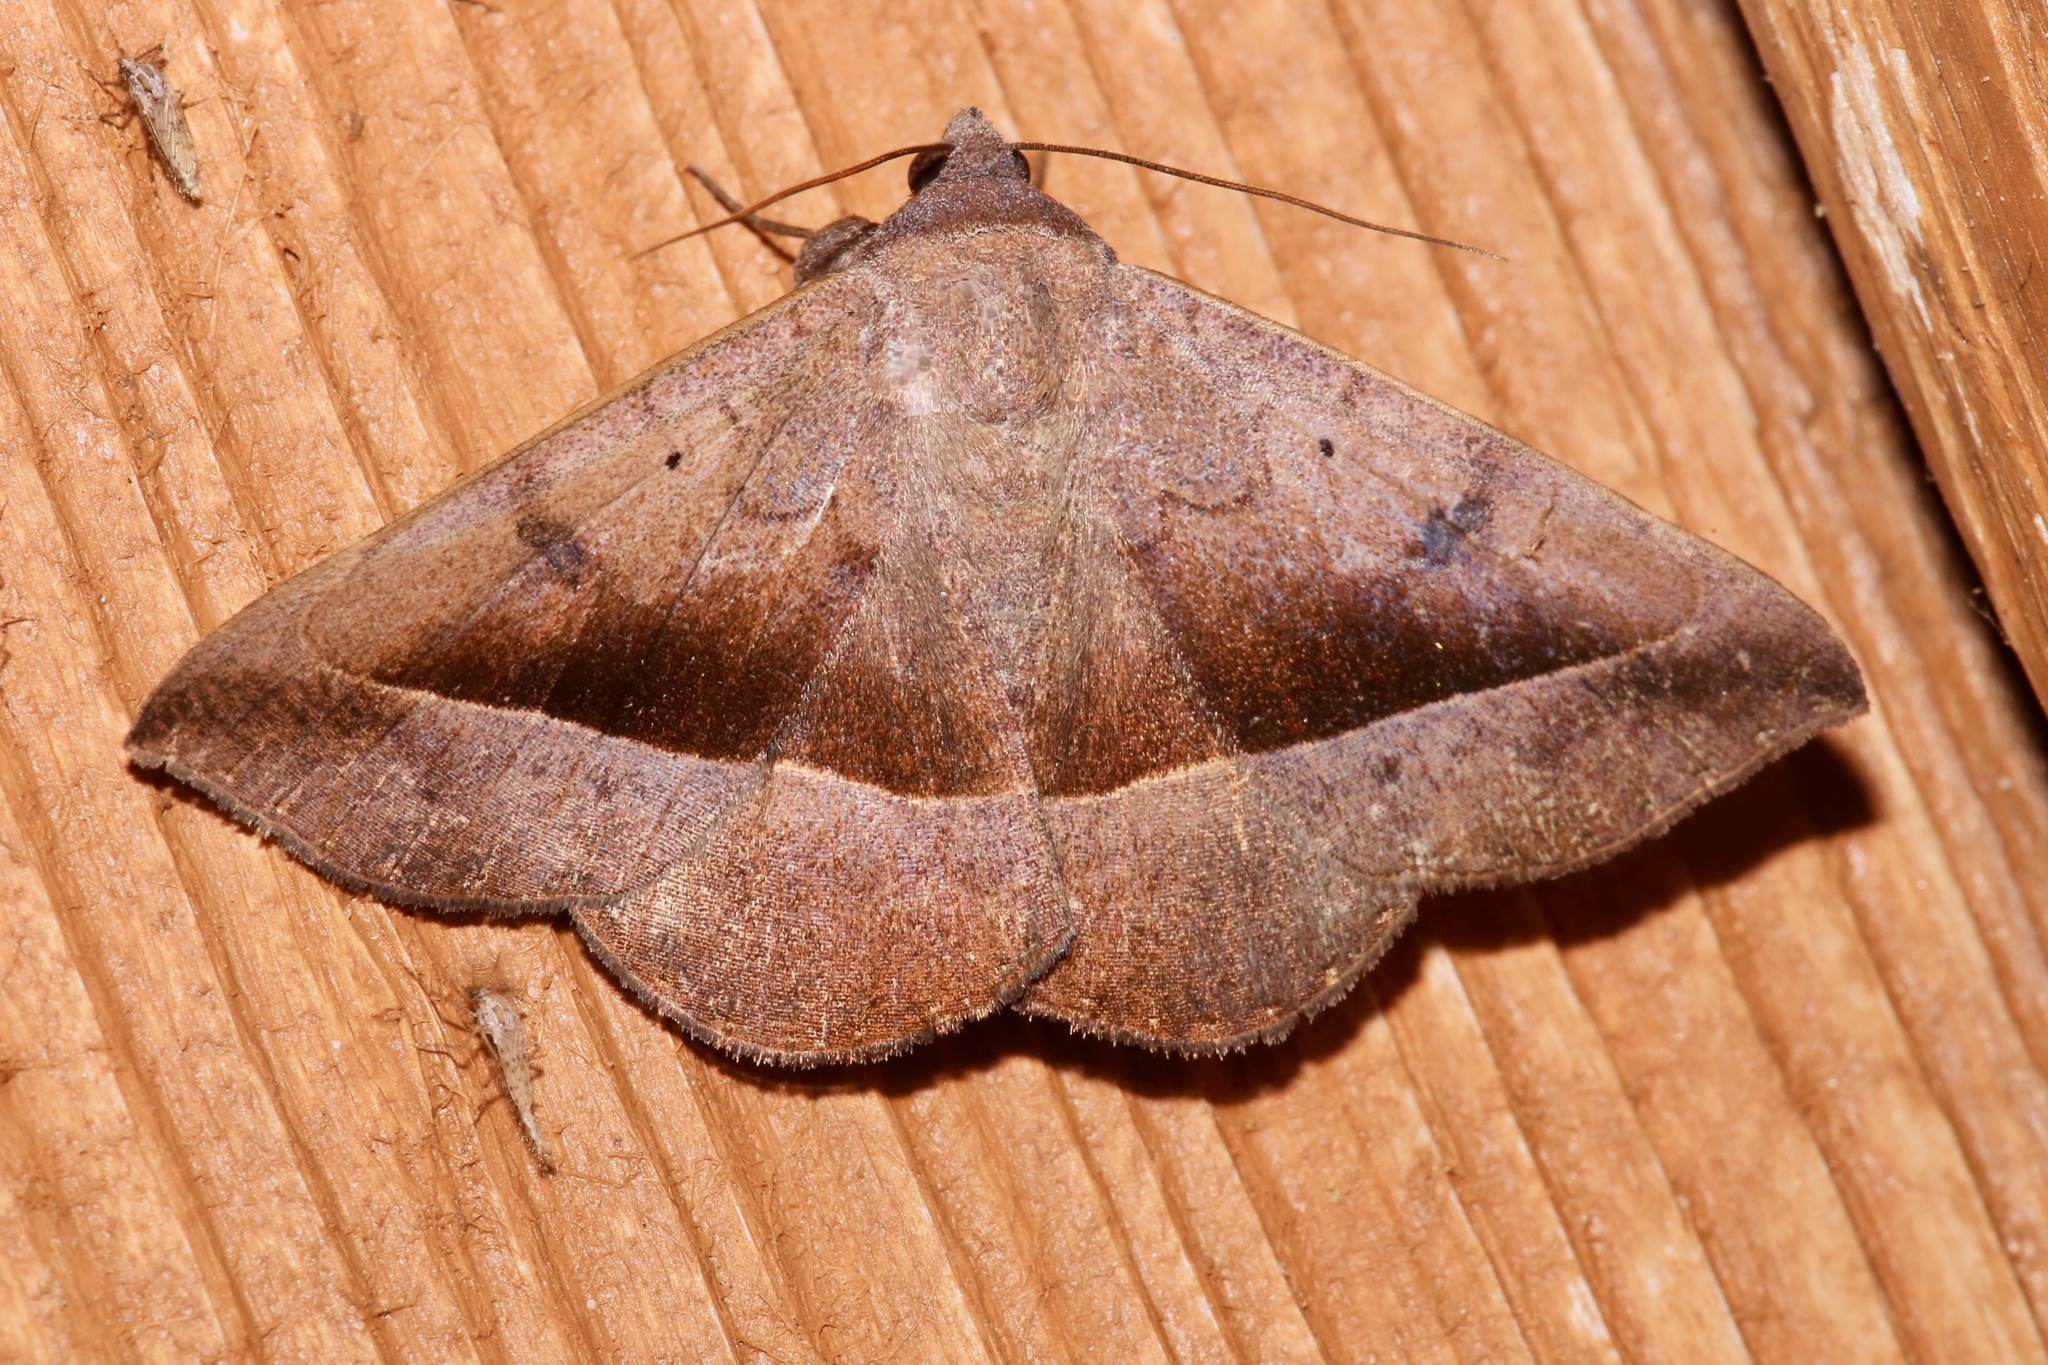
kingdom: Animalia
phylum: Arthropoda
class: Insecta
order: Lepidoptera
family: Erebidae
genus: Epidromia
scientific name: Epidromia rotundata
